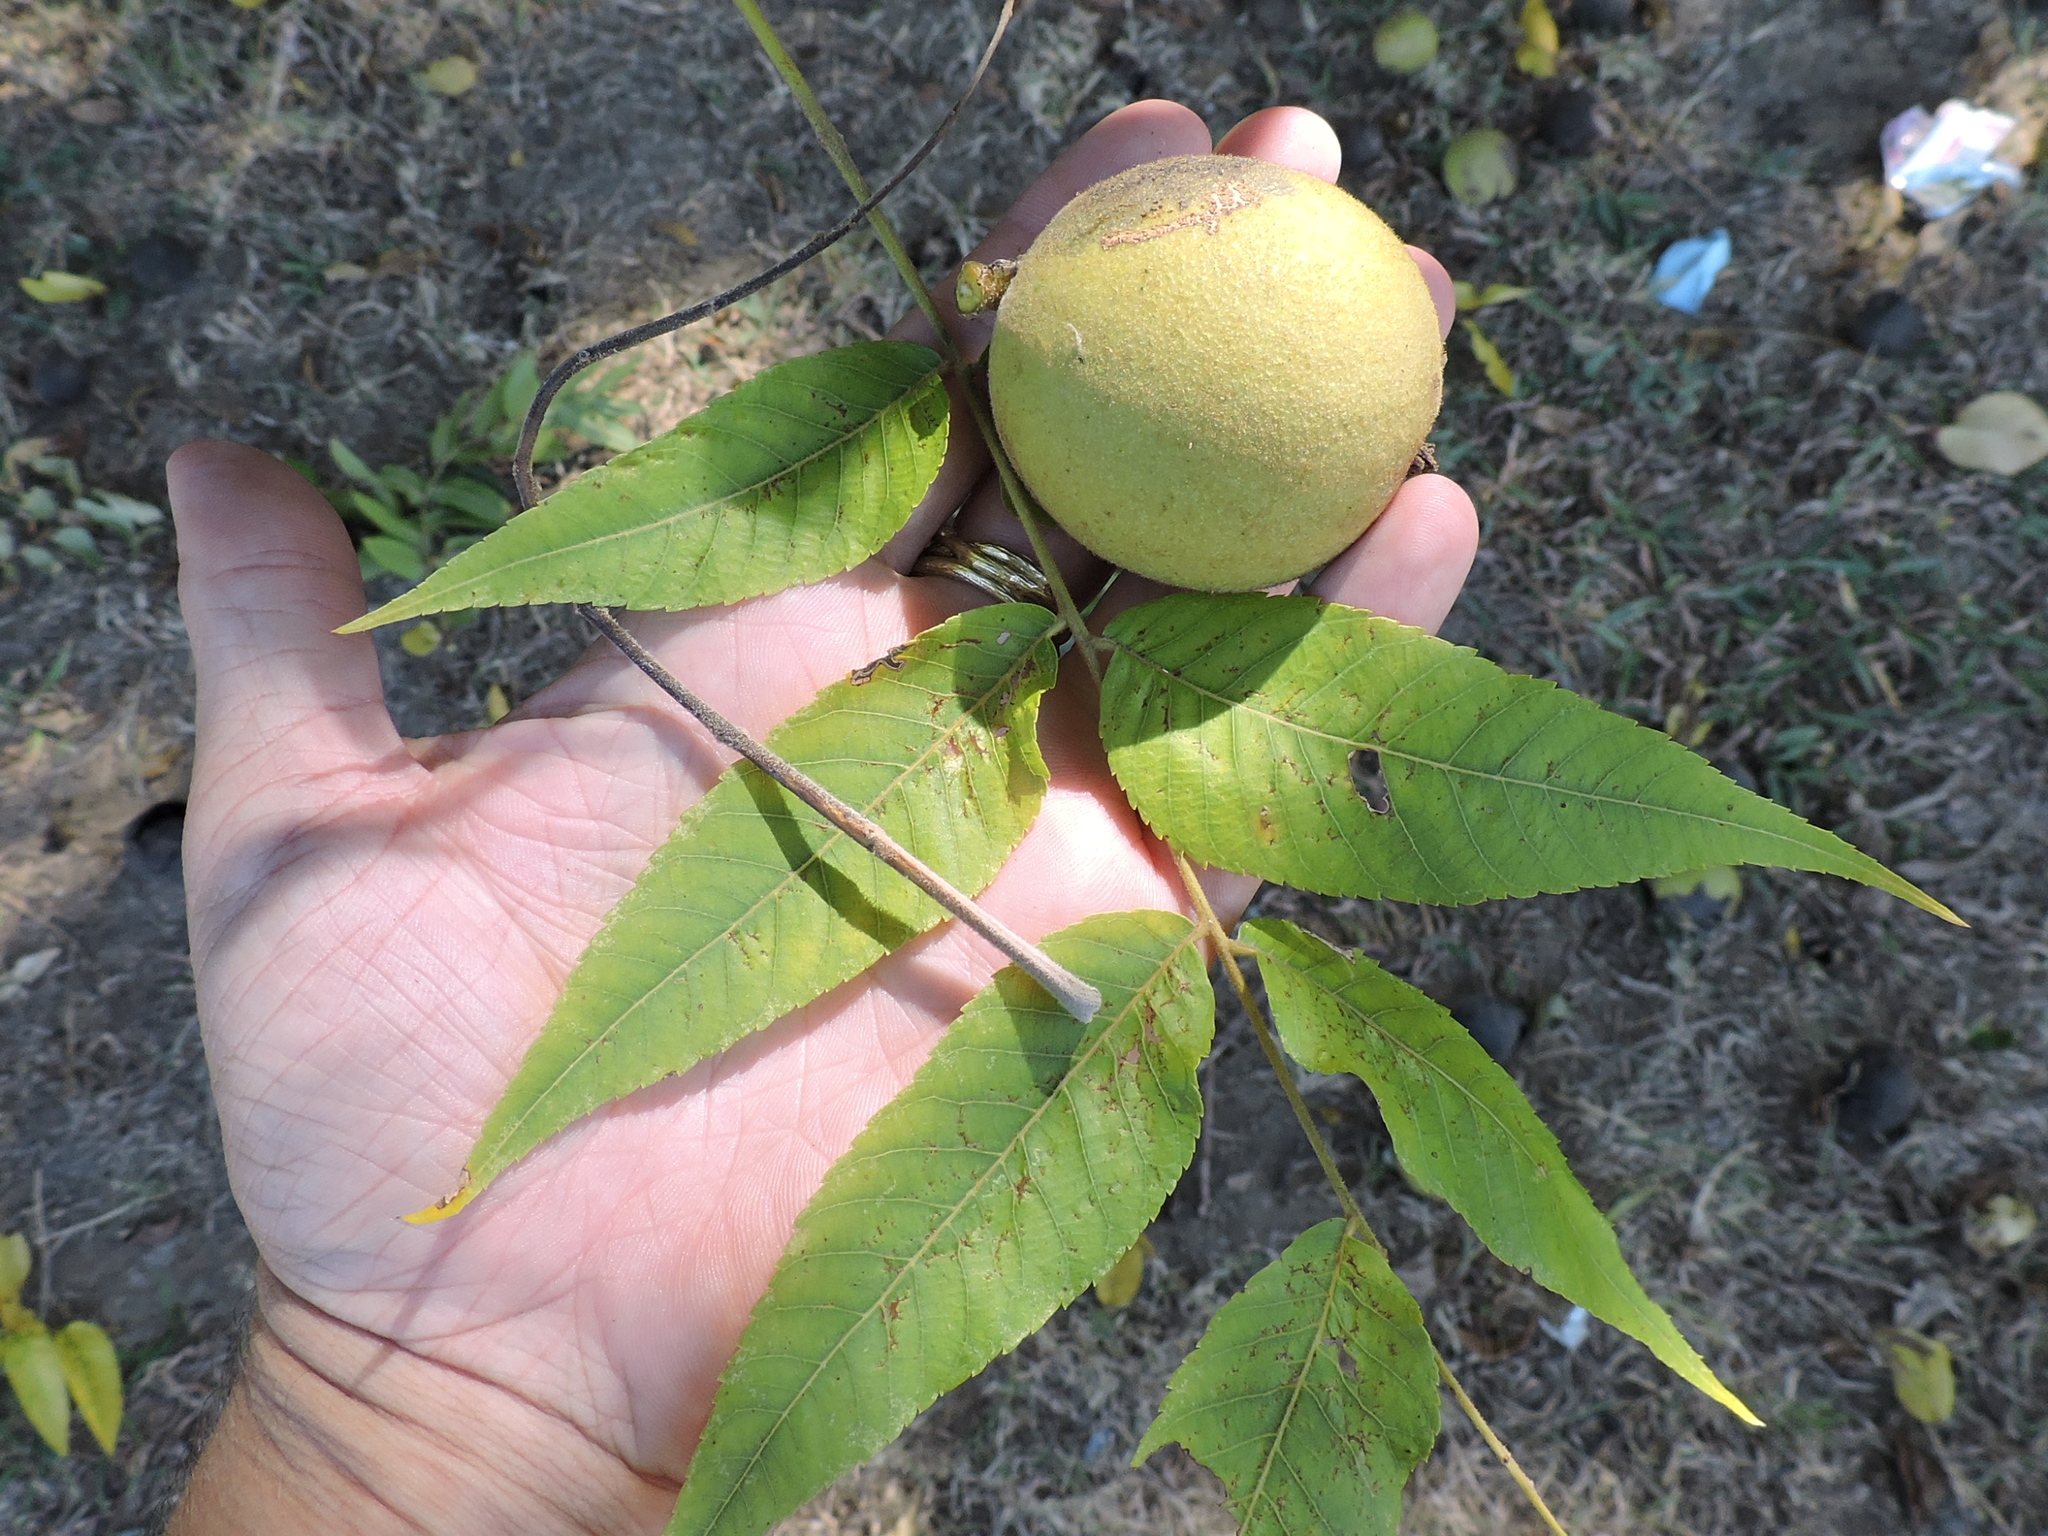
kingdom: Plantae
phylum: Tracheophyta
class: Magnoliopsida
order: Fagales
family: Juglandaceae
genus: Juglans
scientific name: Juglans nigra
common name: Black walnut
